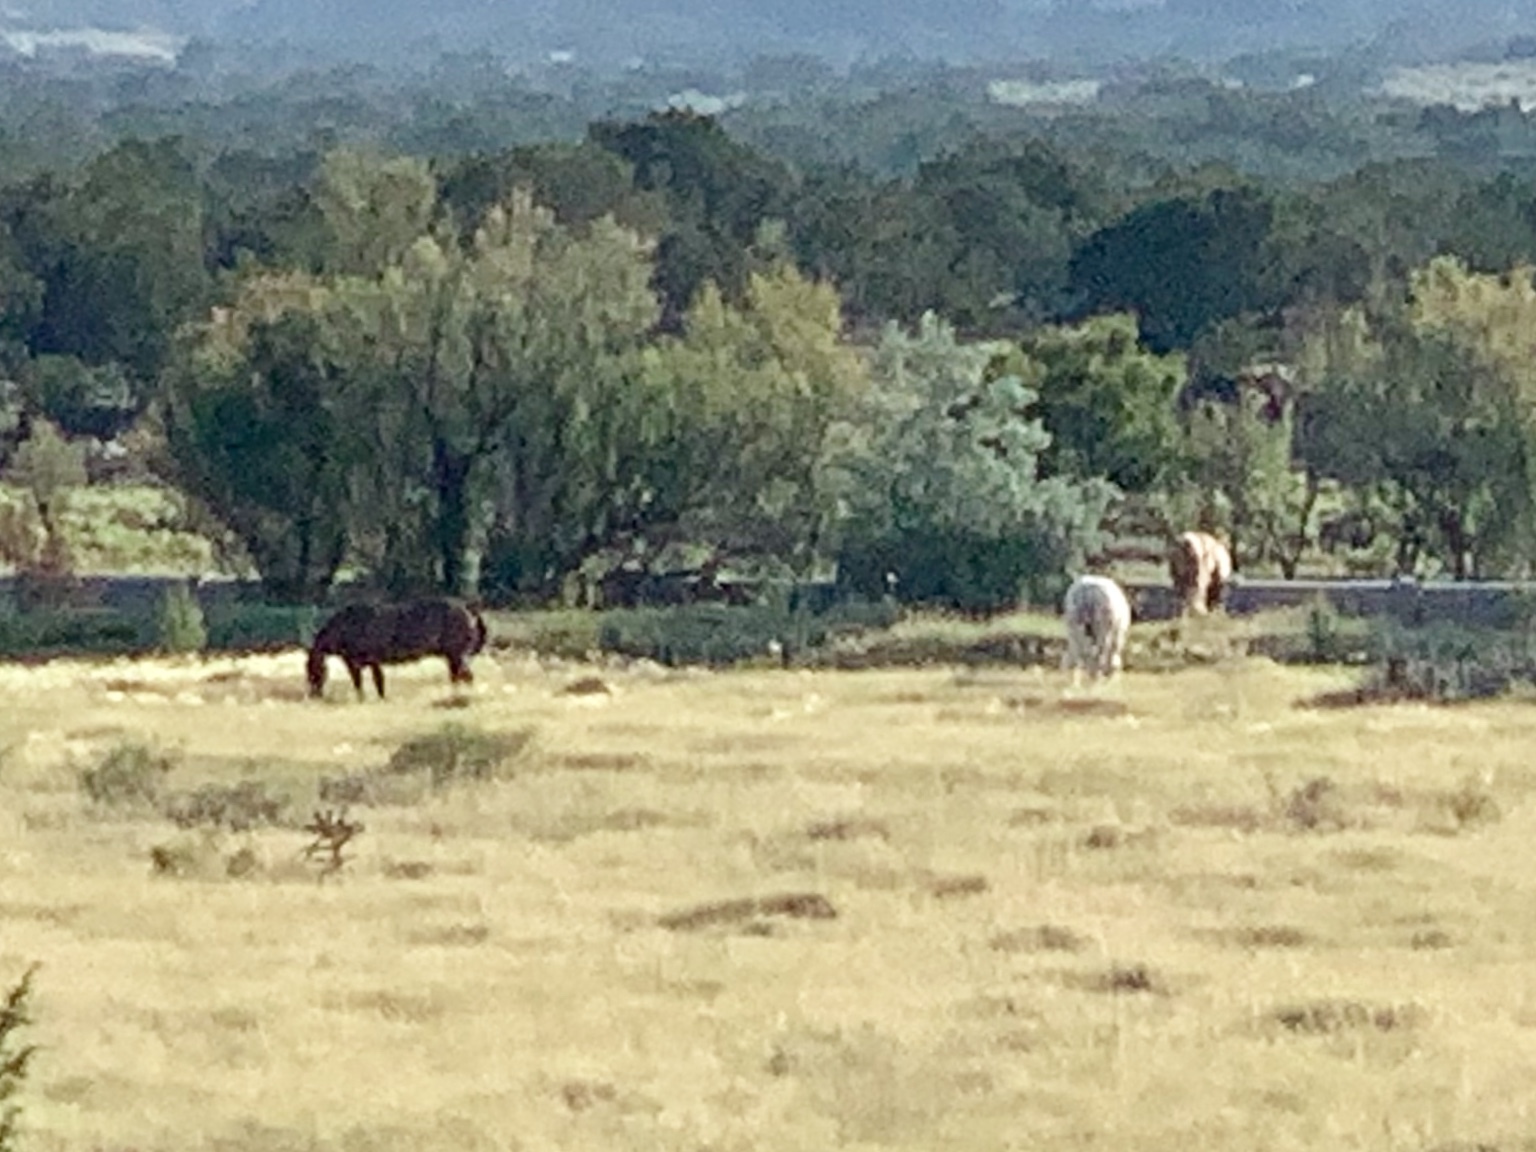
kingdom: Animalia
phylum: Chordata
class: Mammalia
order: Perissodactyla
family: Equidae
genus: Equus
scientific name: Equus caballus
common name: Horse
